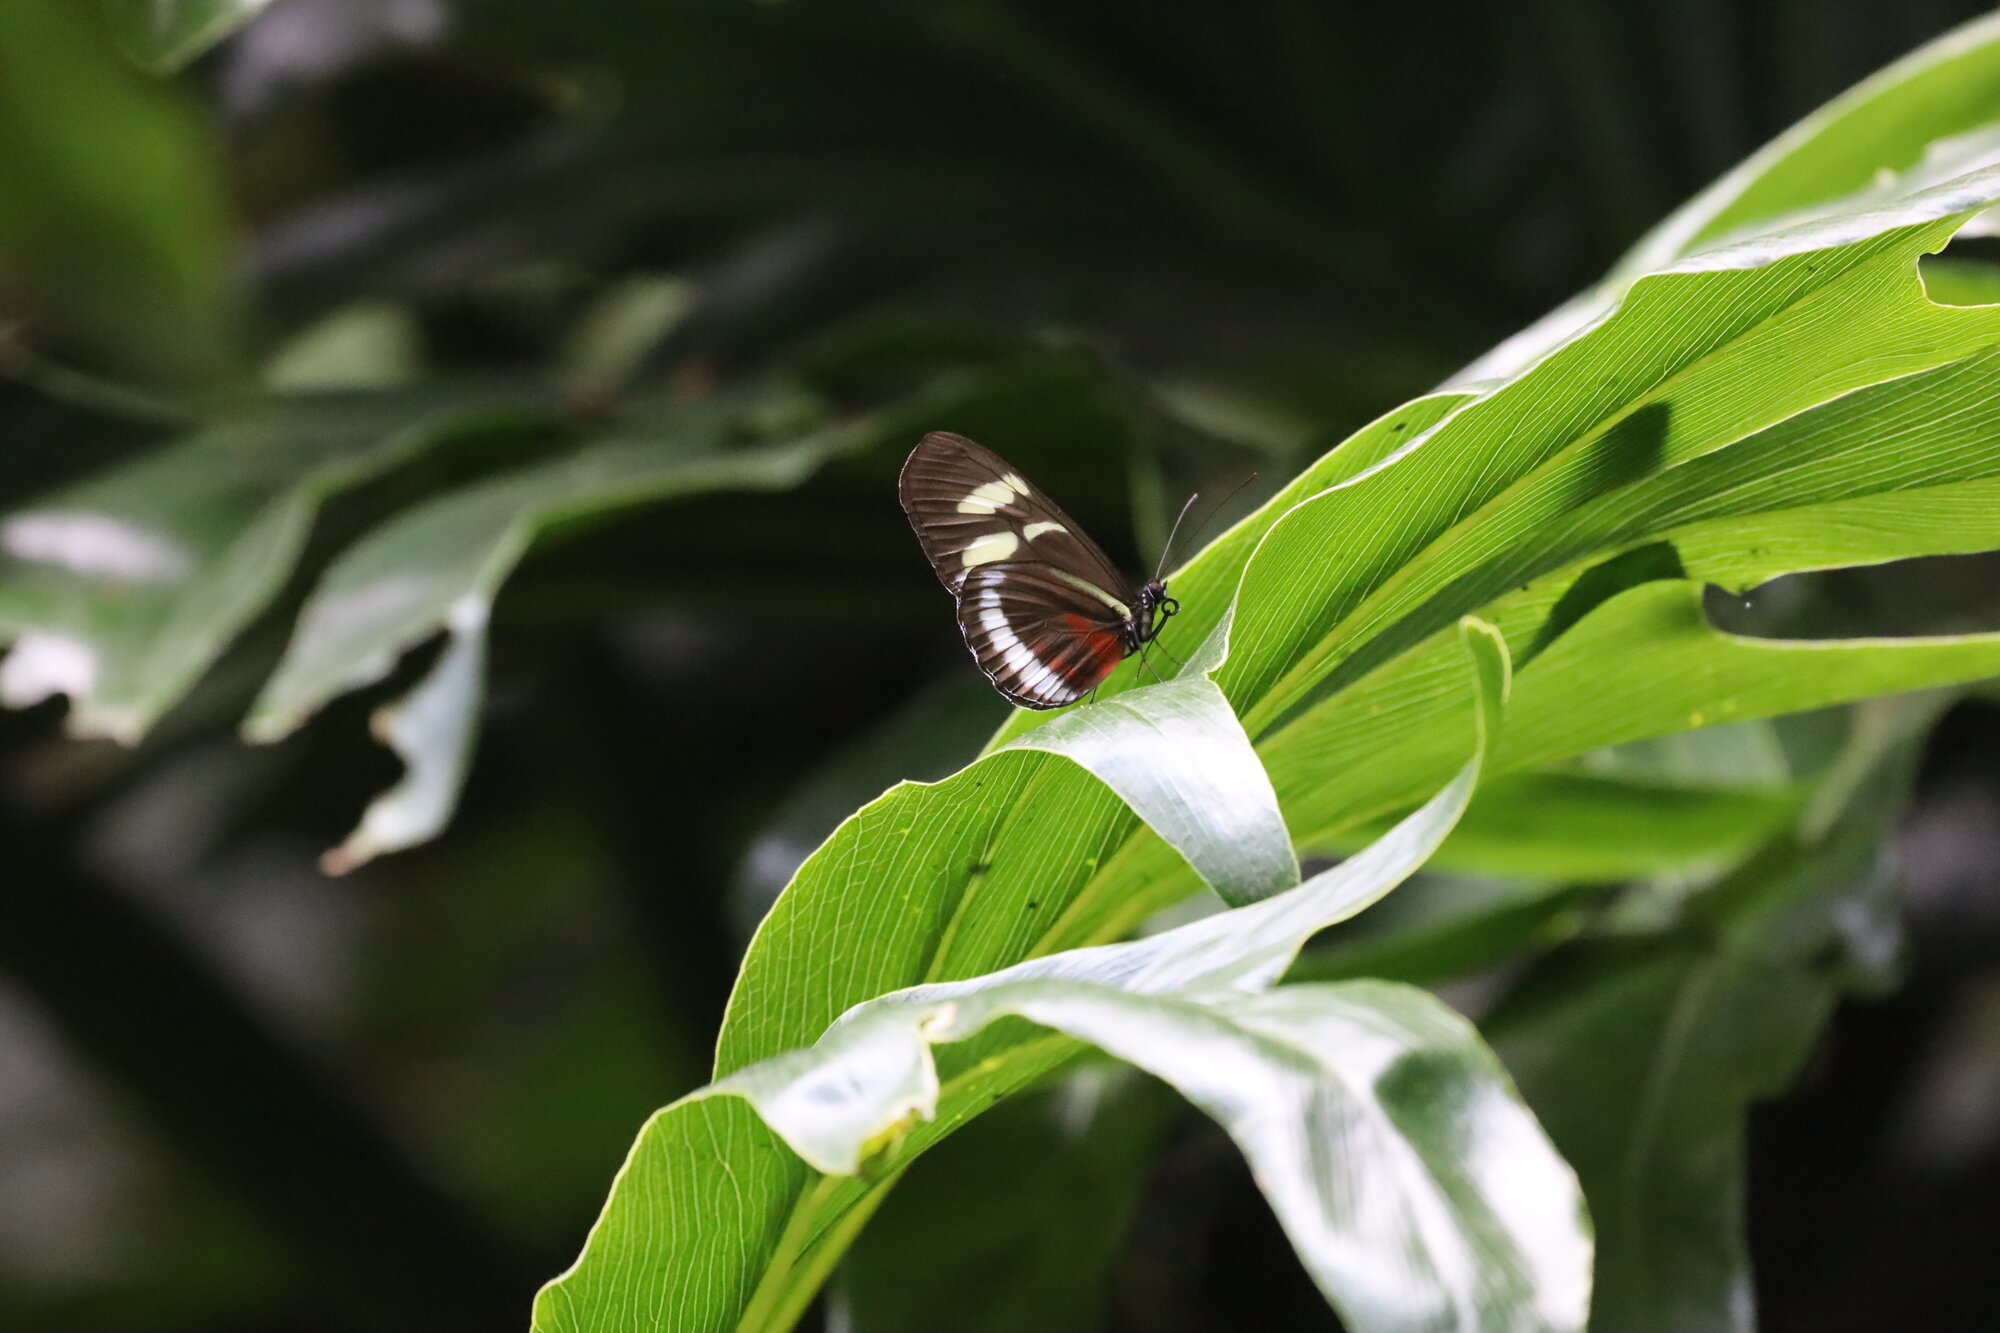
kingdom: Animalia
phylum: Arthropoda
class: Insecta
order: Lepidoptera
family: Nymphalidae
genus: Heliconius
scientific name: Heliconius cydno
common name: Cydno longwing
